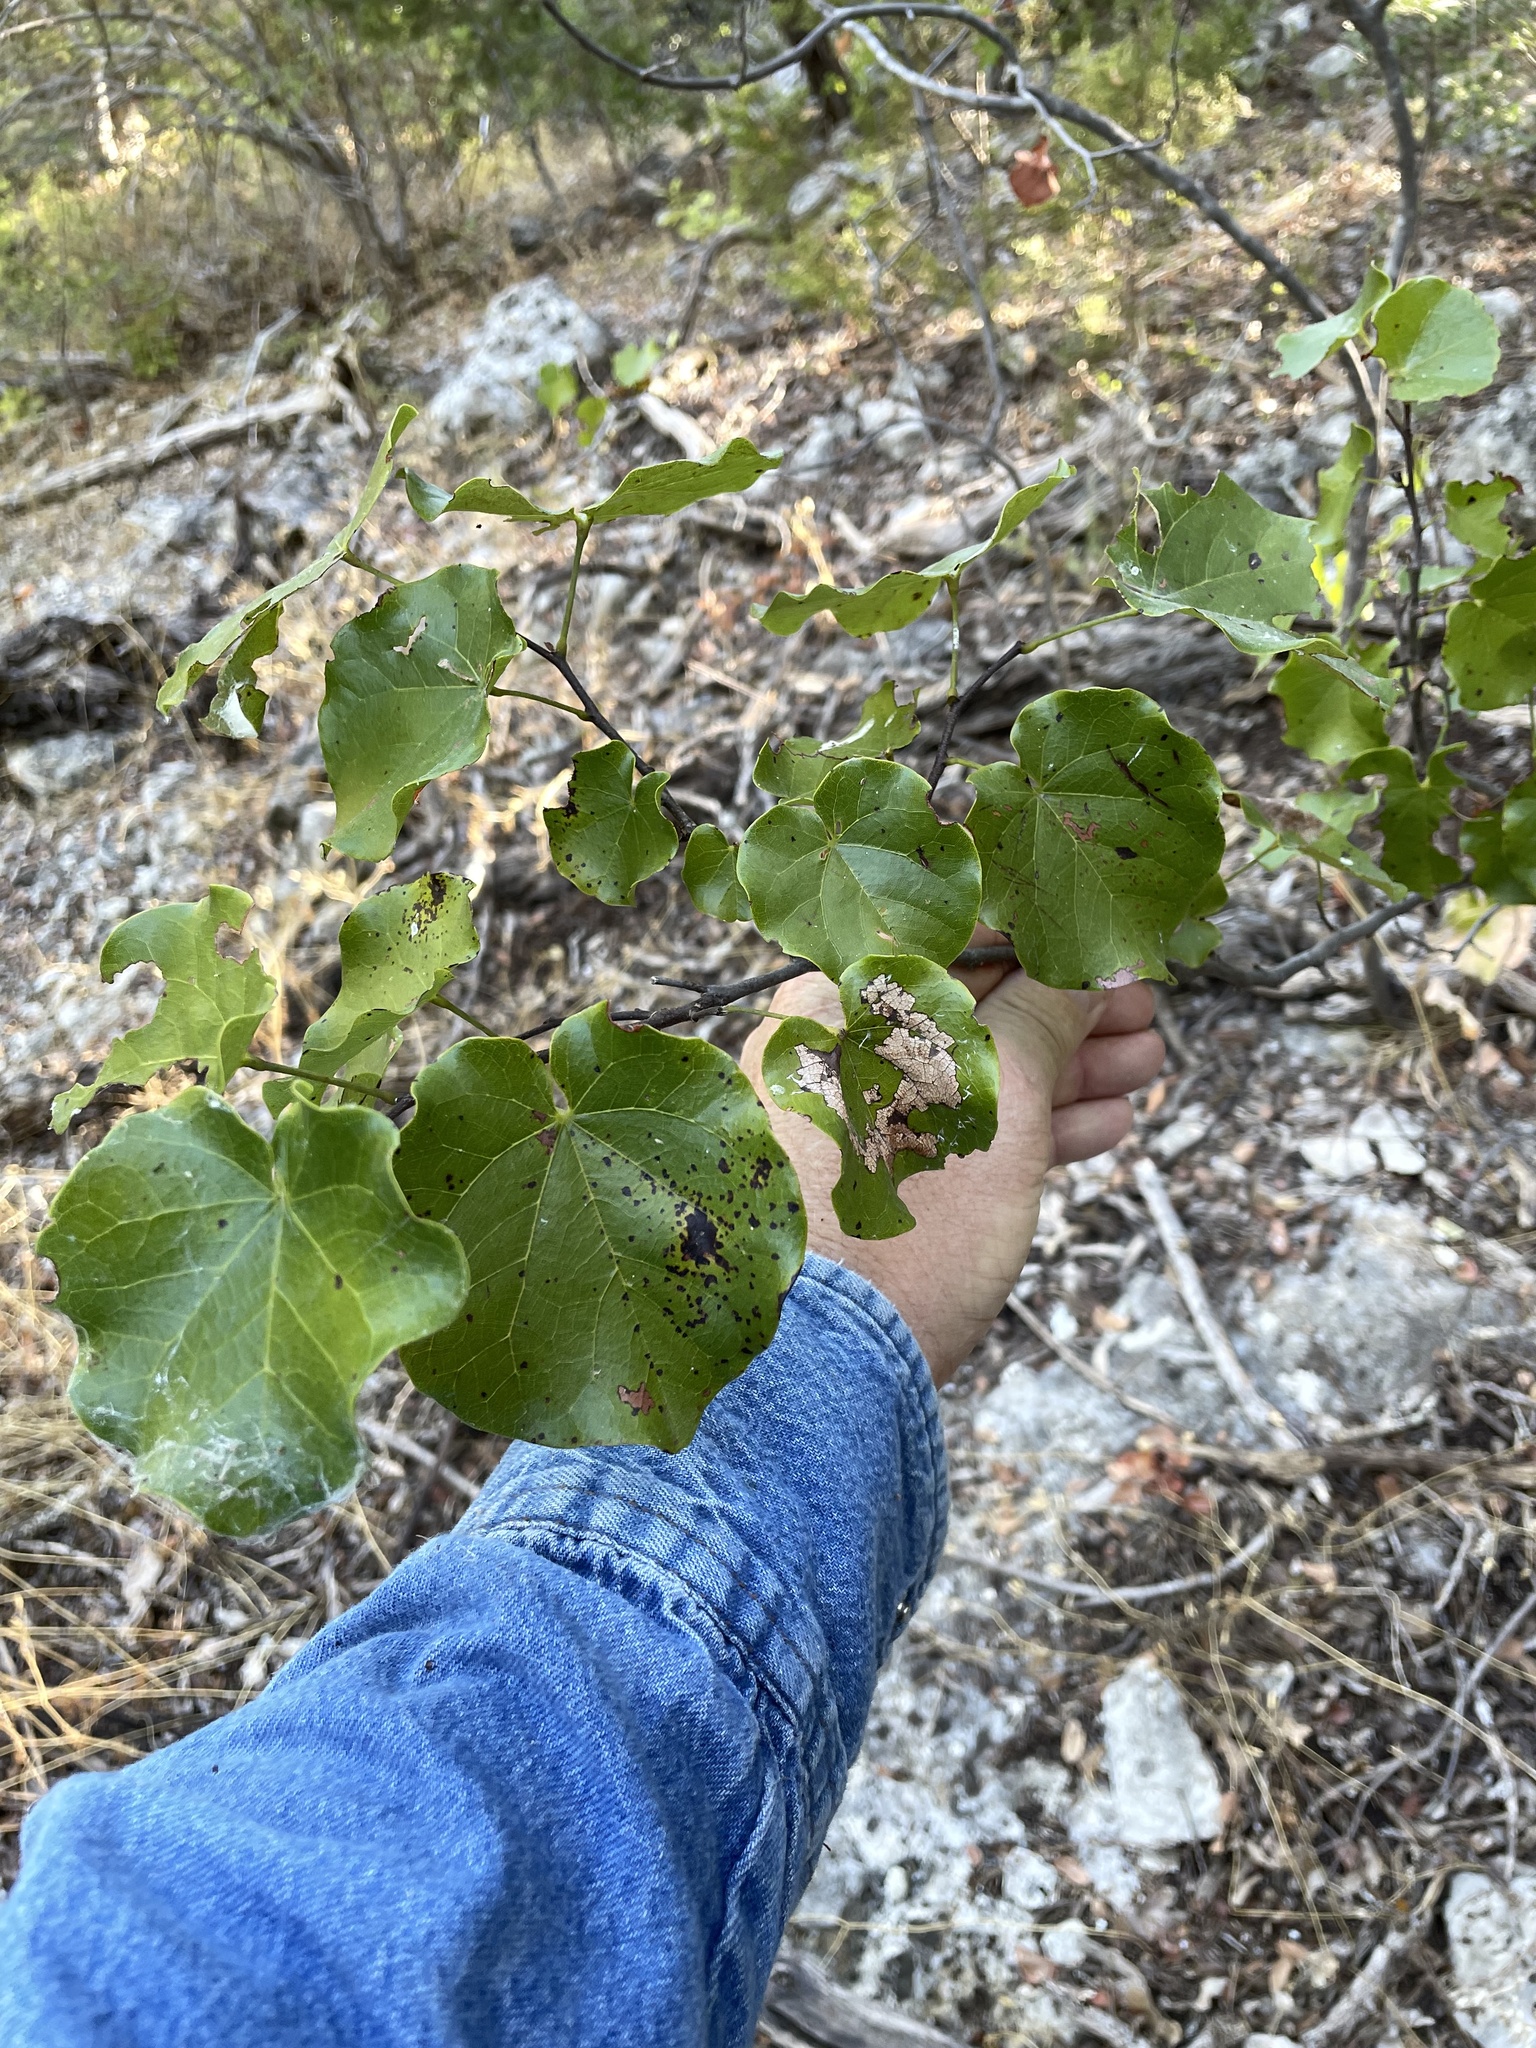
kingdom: Plantae
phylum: Tracheophyta
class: Magnoliopsida
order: Fabales
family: Fabaceae
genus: Cercis
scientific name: Cercis canadensis
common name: Eastern redbud
